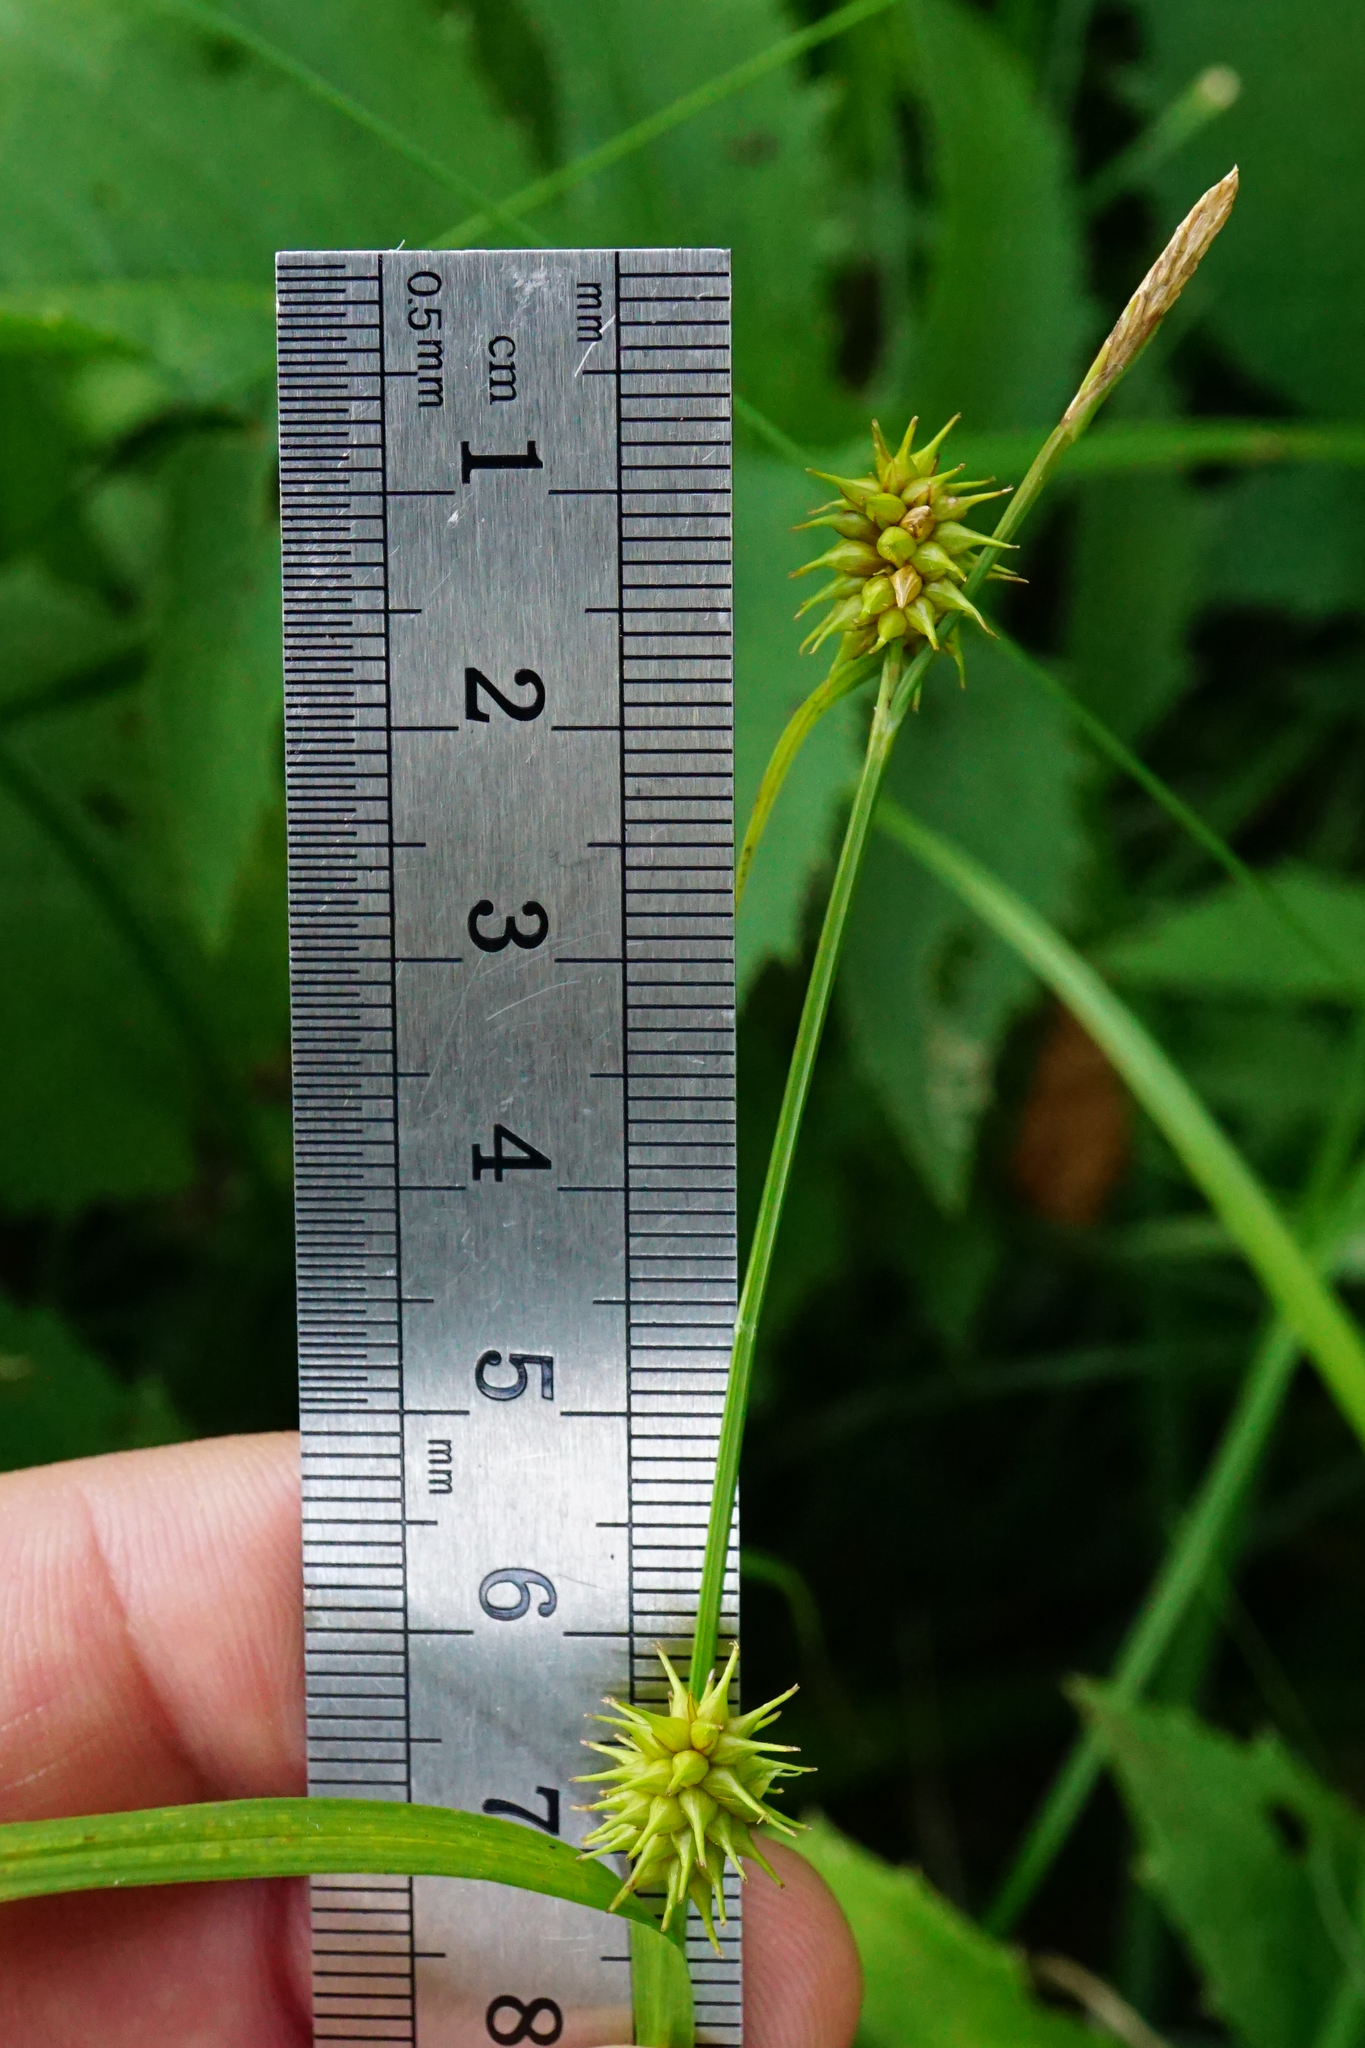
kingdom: Plantae
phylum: Tracheophyta
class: Liliopsida
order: Poales
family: Cyperaceae
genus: Carex
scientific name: Carex lepidocarpa
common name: Long-stalked yellow-sedge
